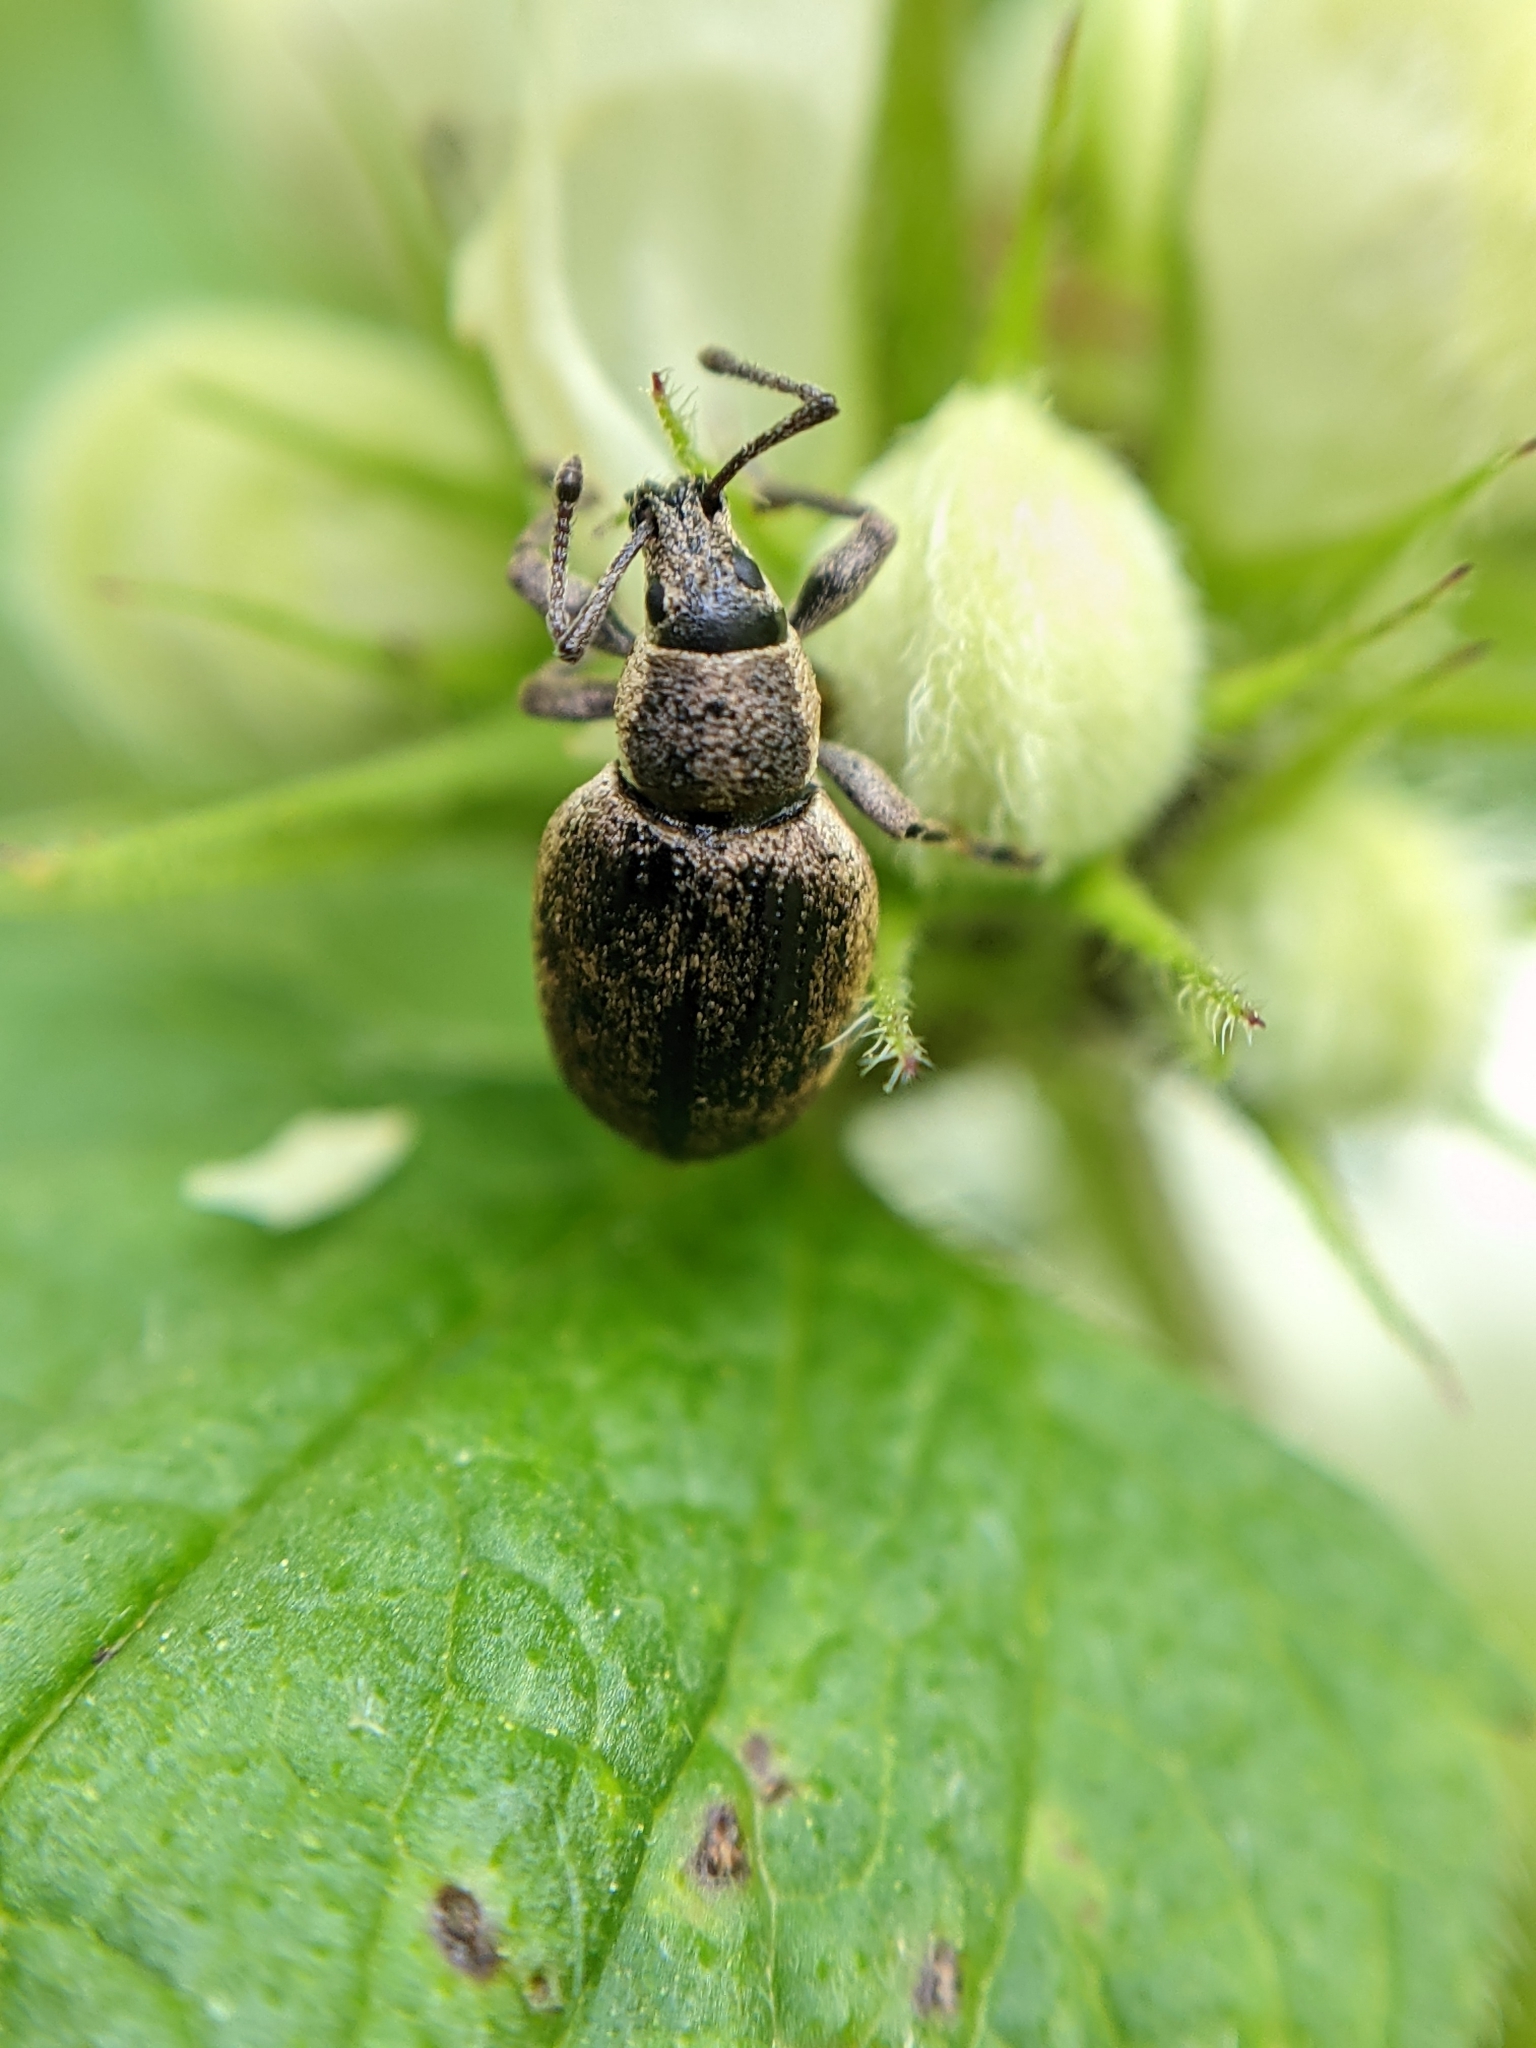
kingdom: Animalia
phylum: Arthropoda
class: Insecta
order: Coleoptera
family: Curculionidae
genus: Peritelus
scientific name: Peritelus sphaeroides
